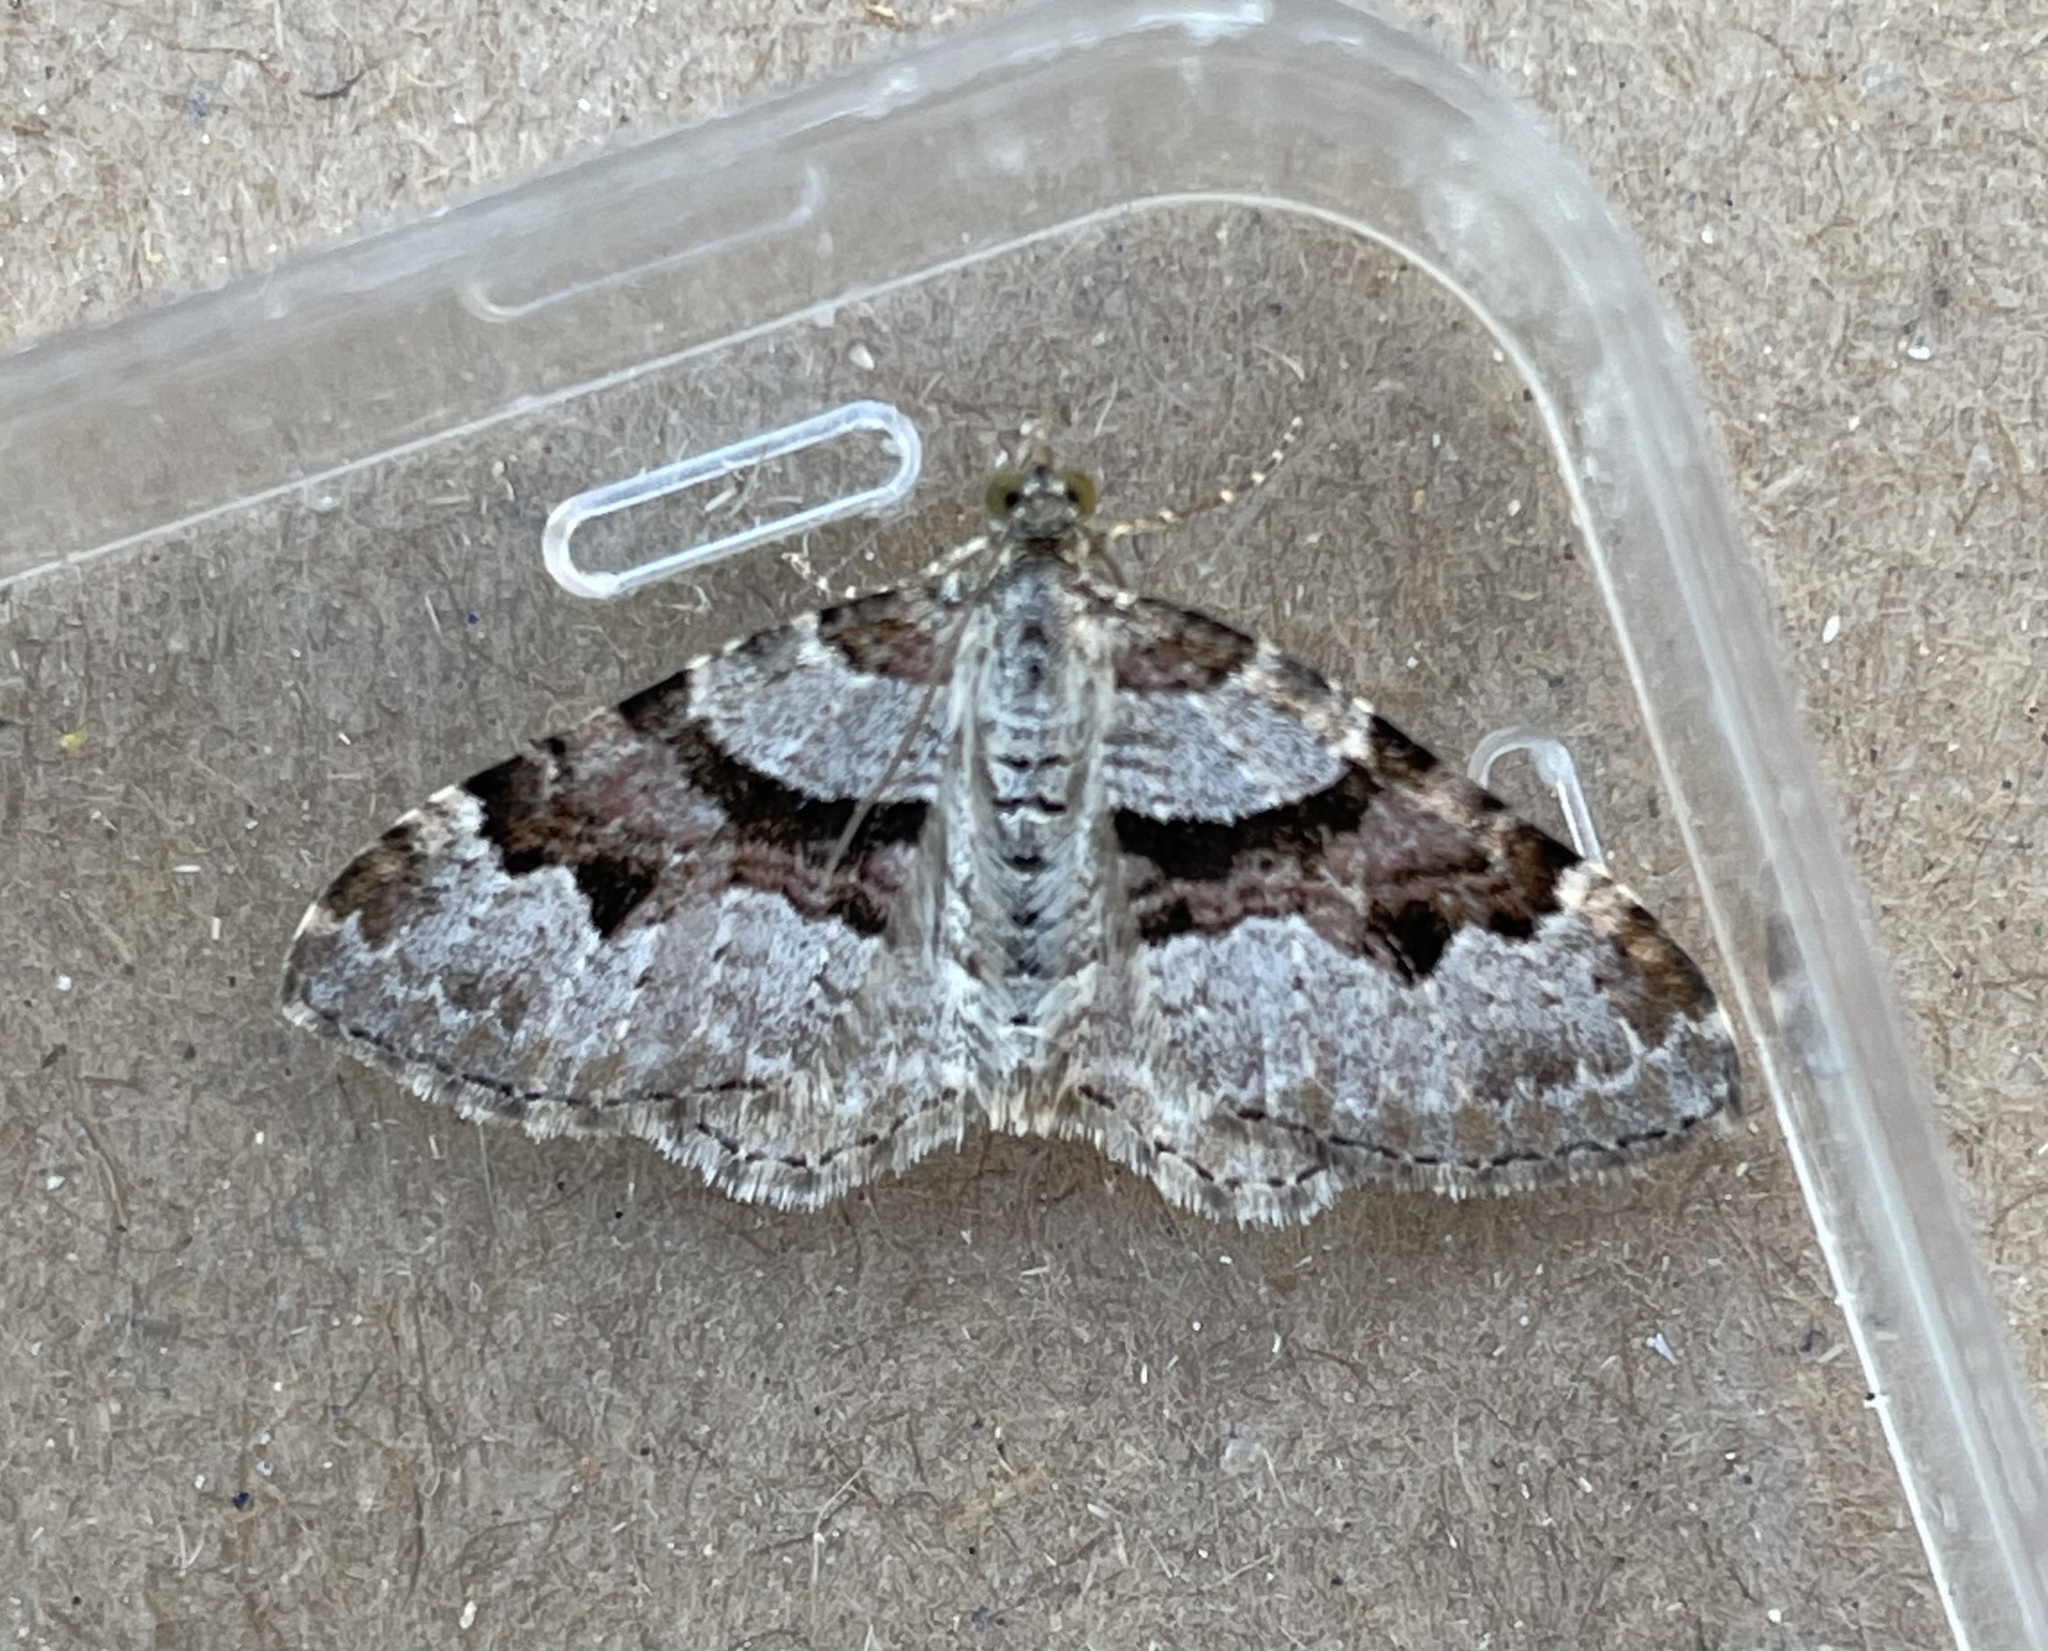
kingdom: Animalia
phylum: Arthropoda
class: Insecta
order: Lepidoptera
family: Geometridae
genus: Xanthorhoe
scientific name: Xanthorhoe designata
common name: Flame carpet
